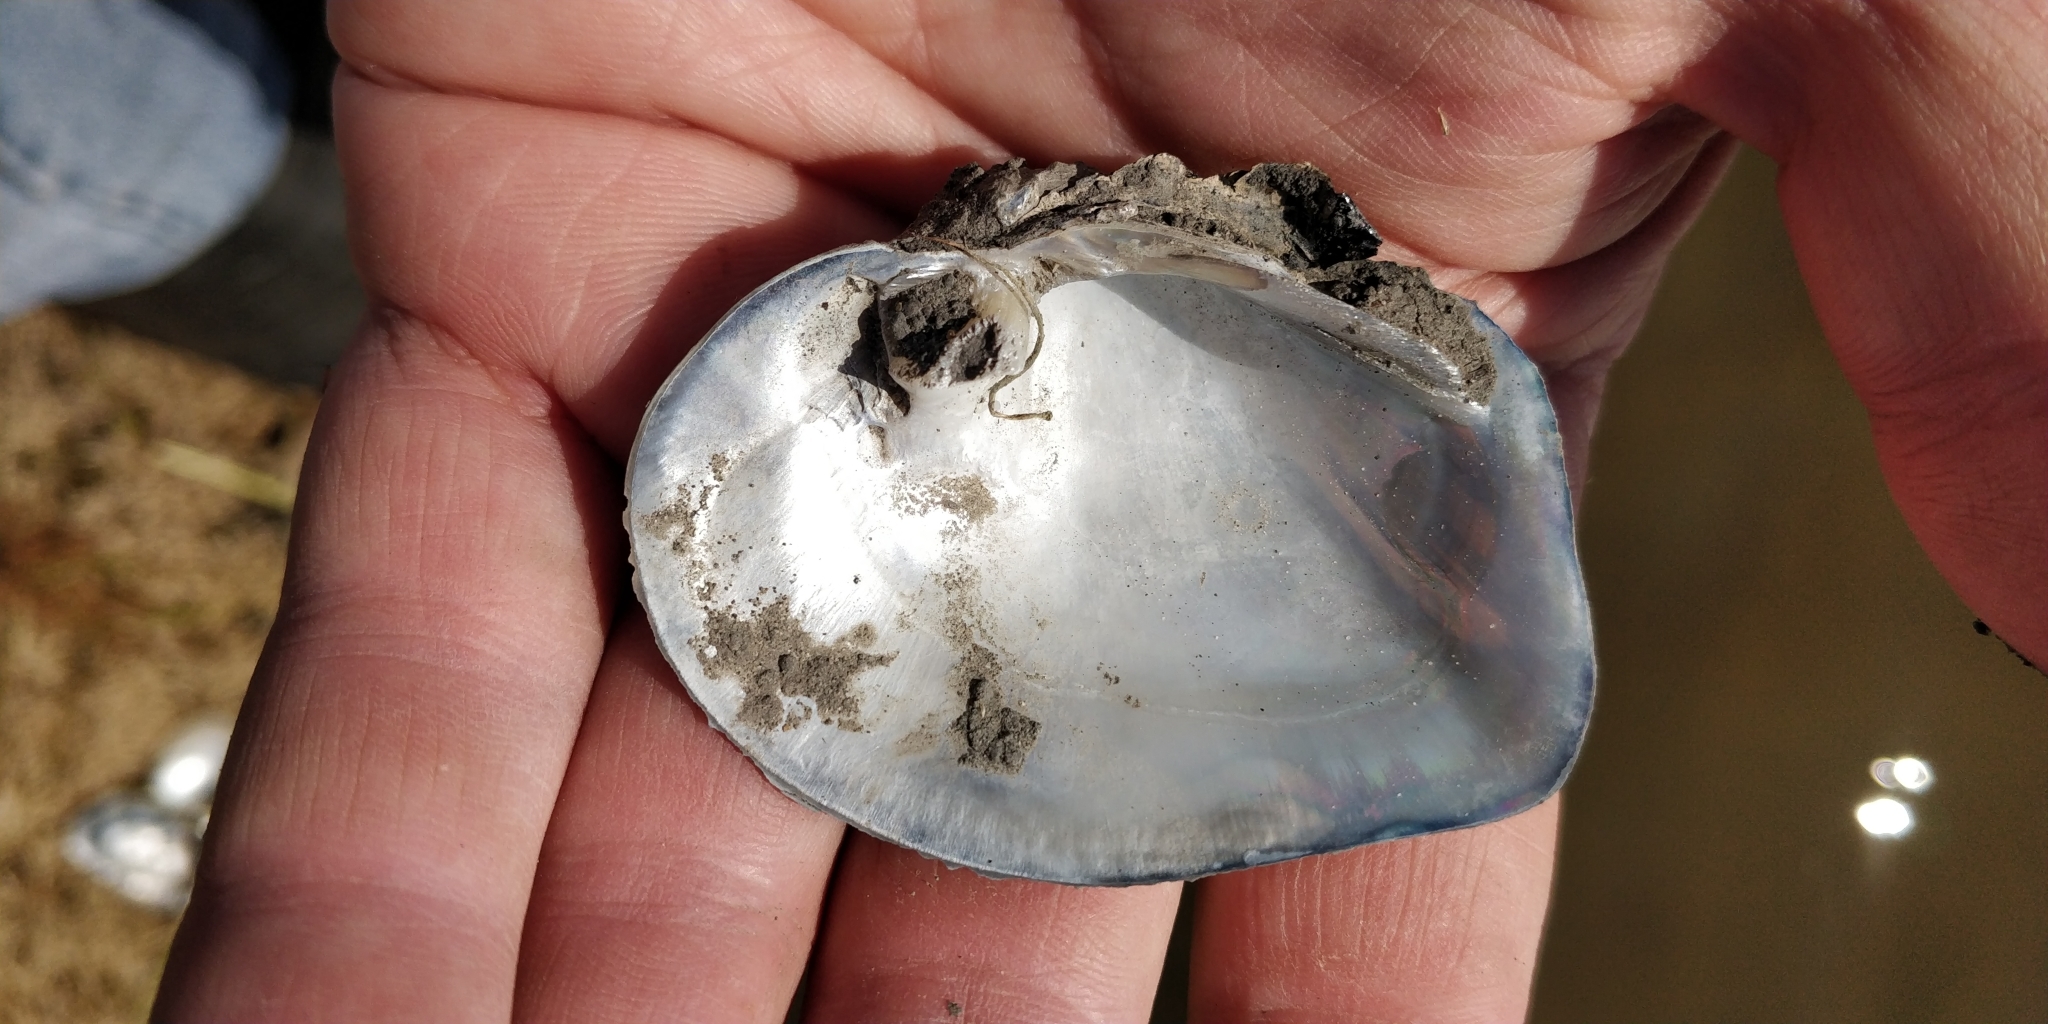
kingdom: Animalia
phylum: Mollusca
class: Bivalvia
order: Unionida
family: Unionidae
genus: Quadrula
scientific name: Quadrula quadrula
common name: Mapleleaf
